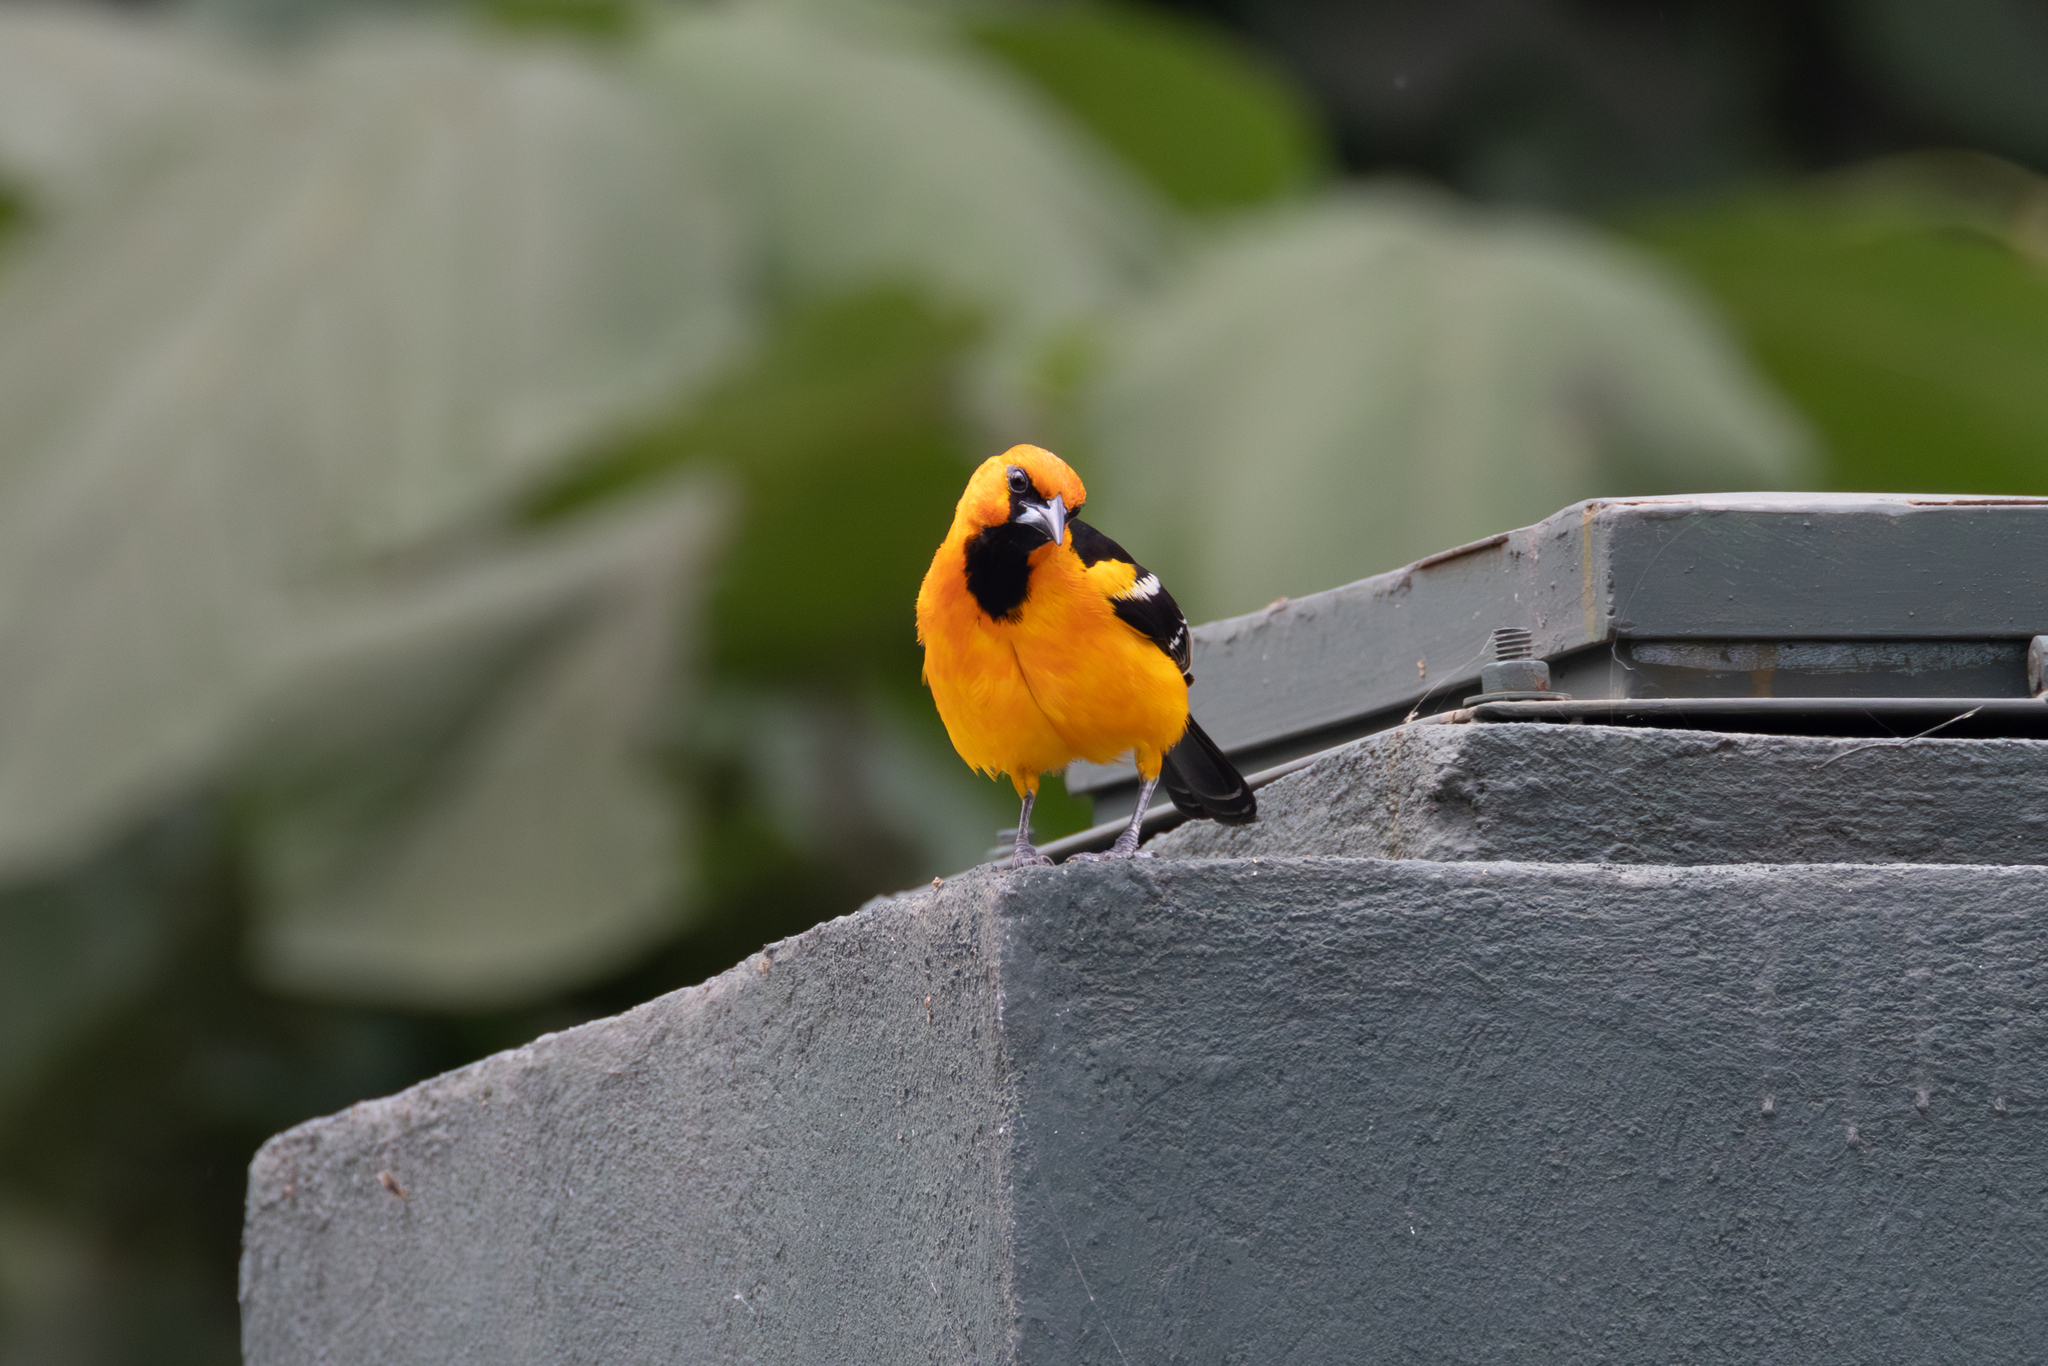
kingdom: Animalia
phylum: Chordata
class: Aves
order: Passeriformes
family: Icteridae
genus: Icterus
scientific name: Icterus gularis
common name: Altamira oriole
